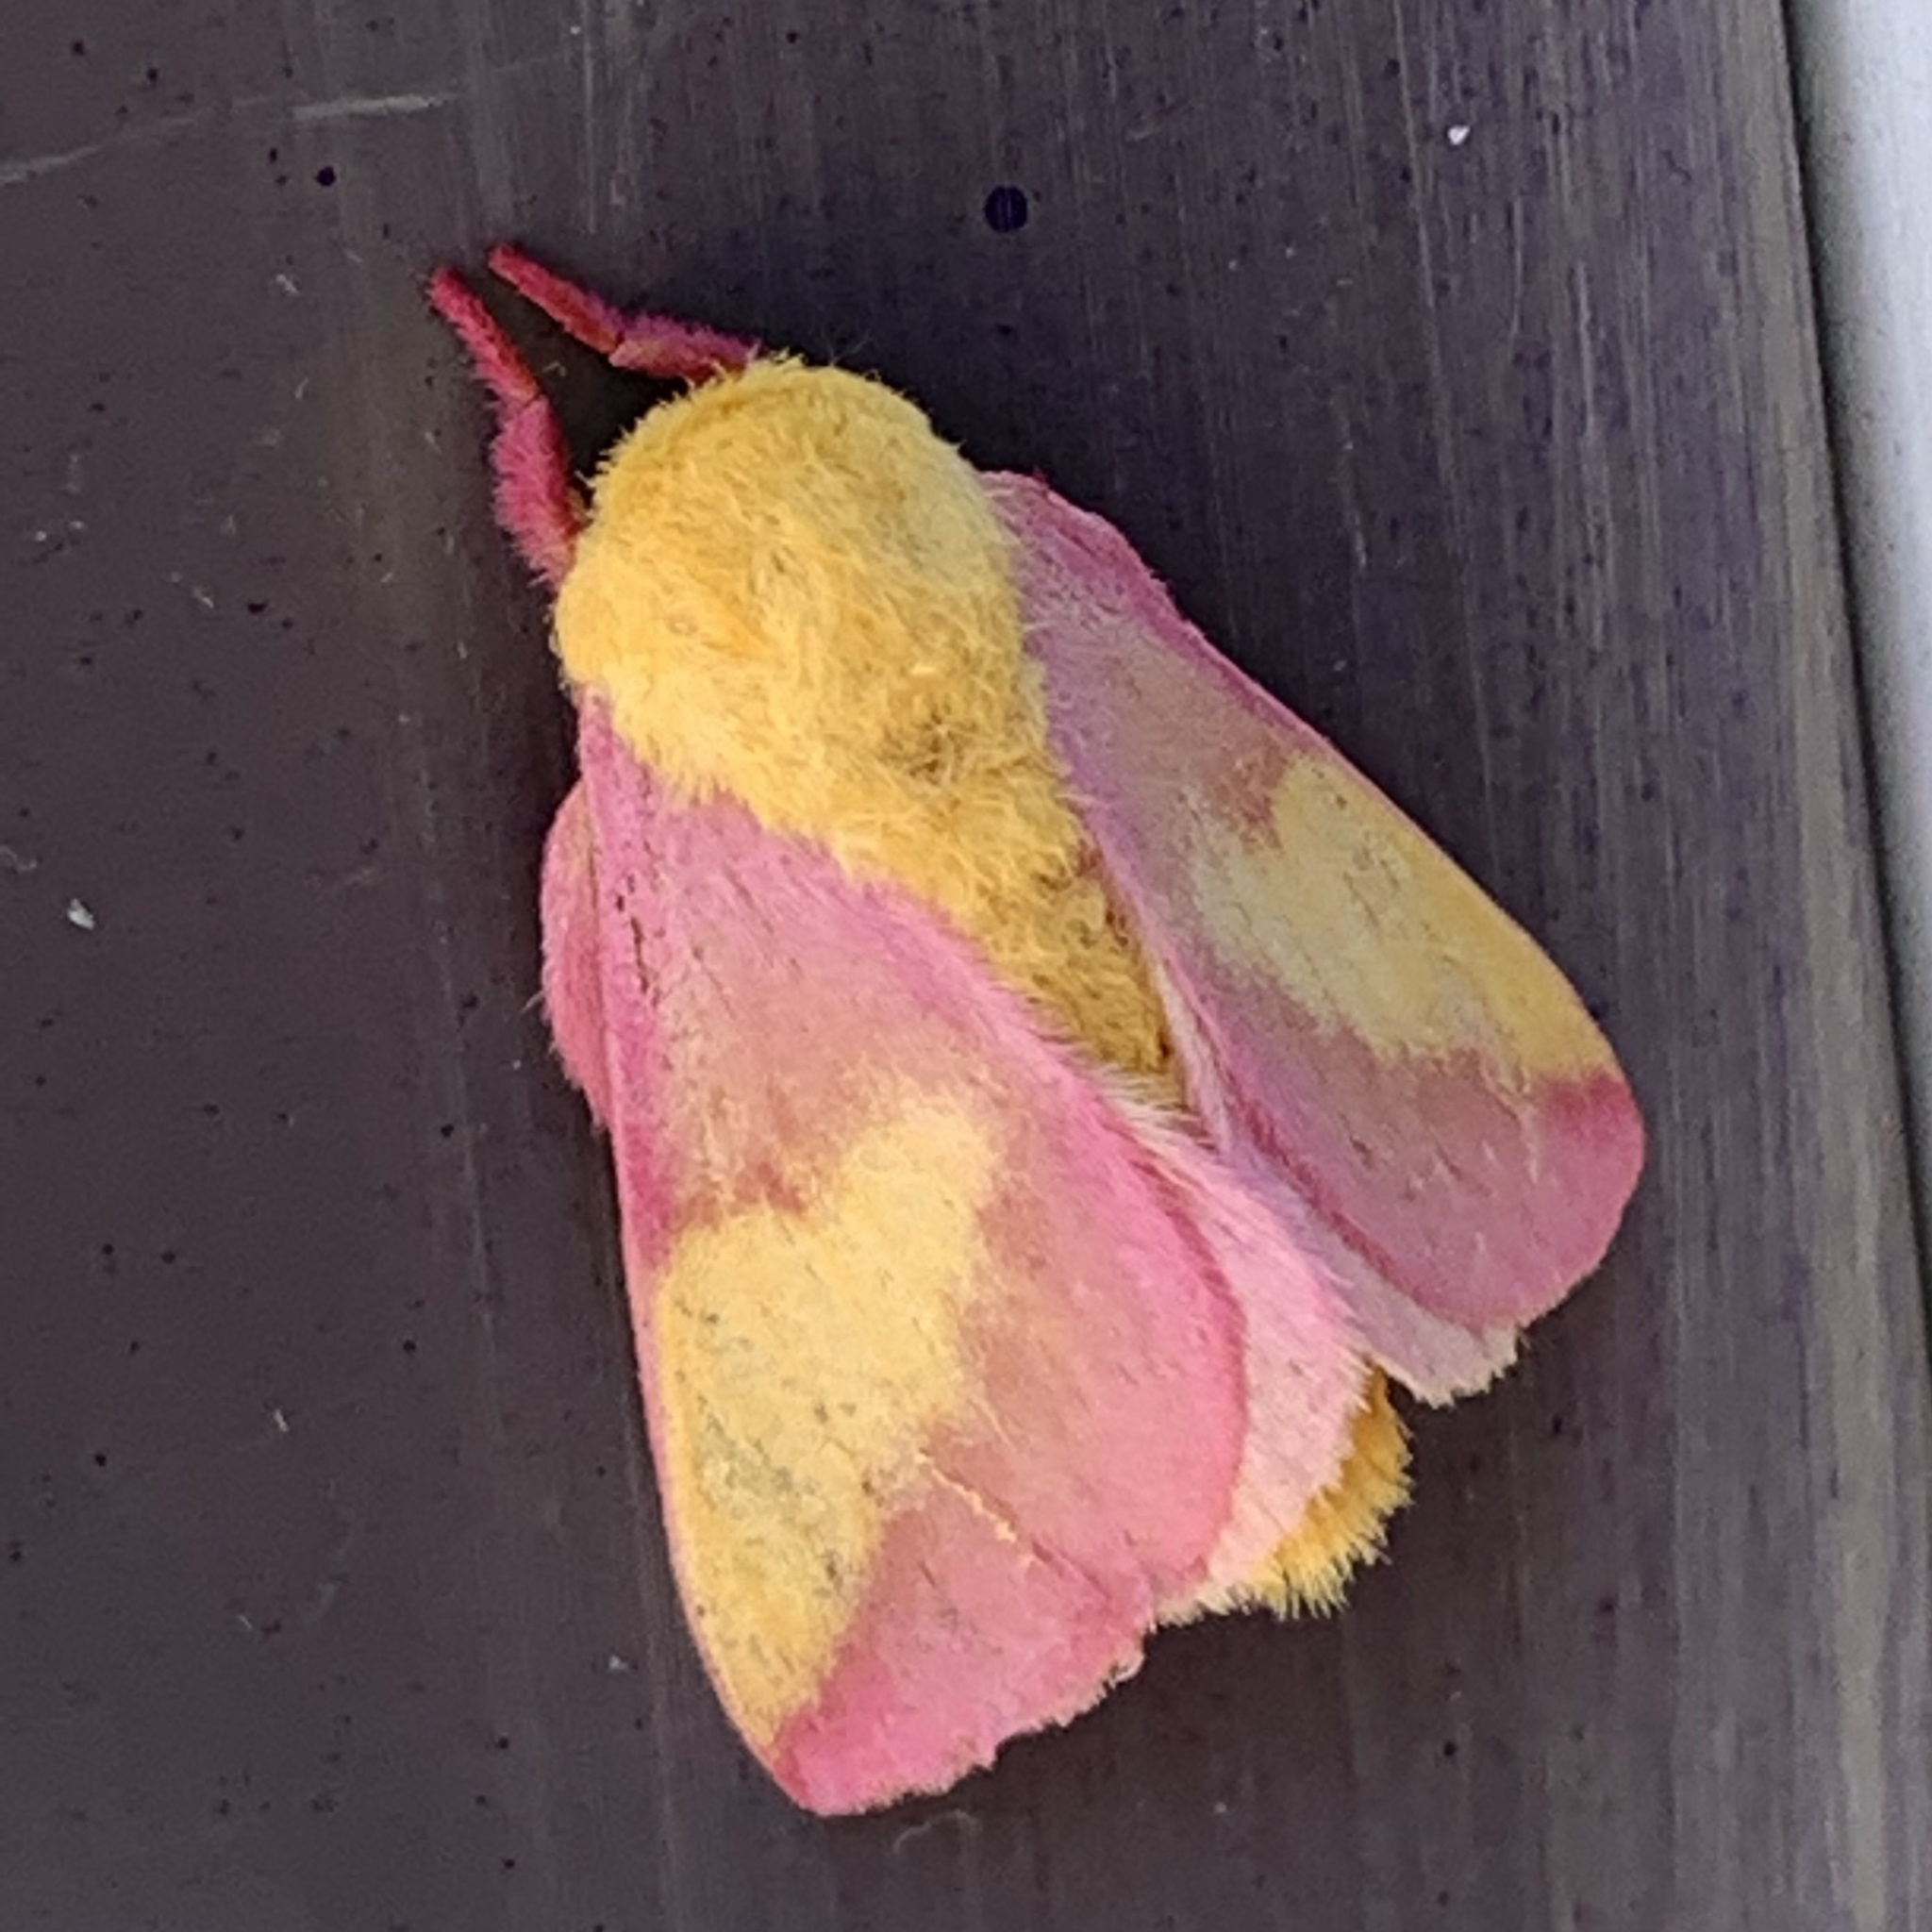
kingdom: Animalia
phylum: Arthropoda
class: Insecta
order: Lepidoptera
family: Saturniidae
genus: Dryocampa
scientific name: Dryocampa rubicunda
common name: Rosy maple moth
